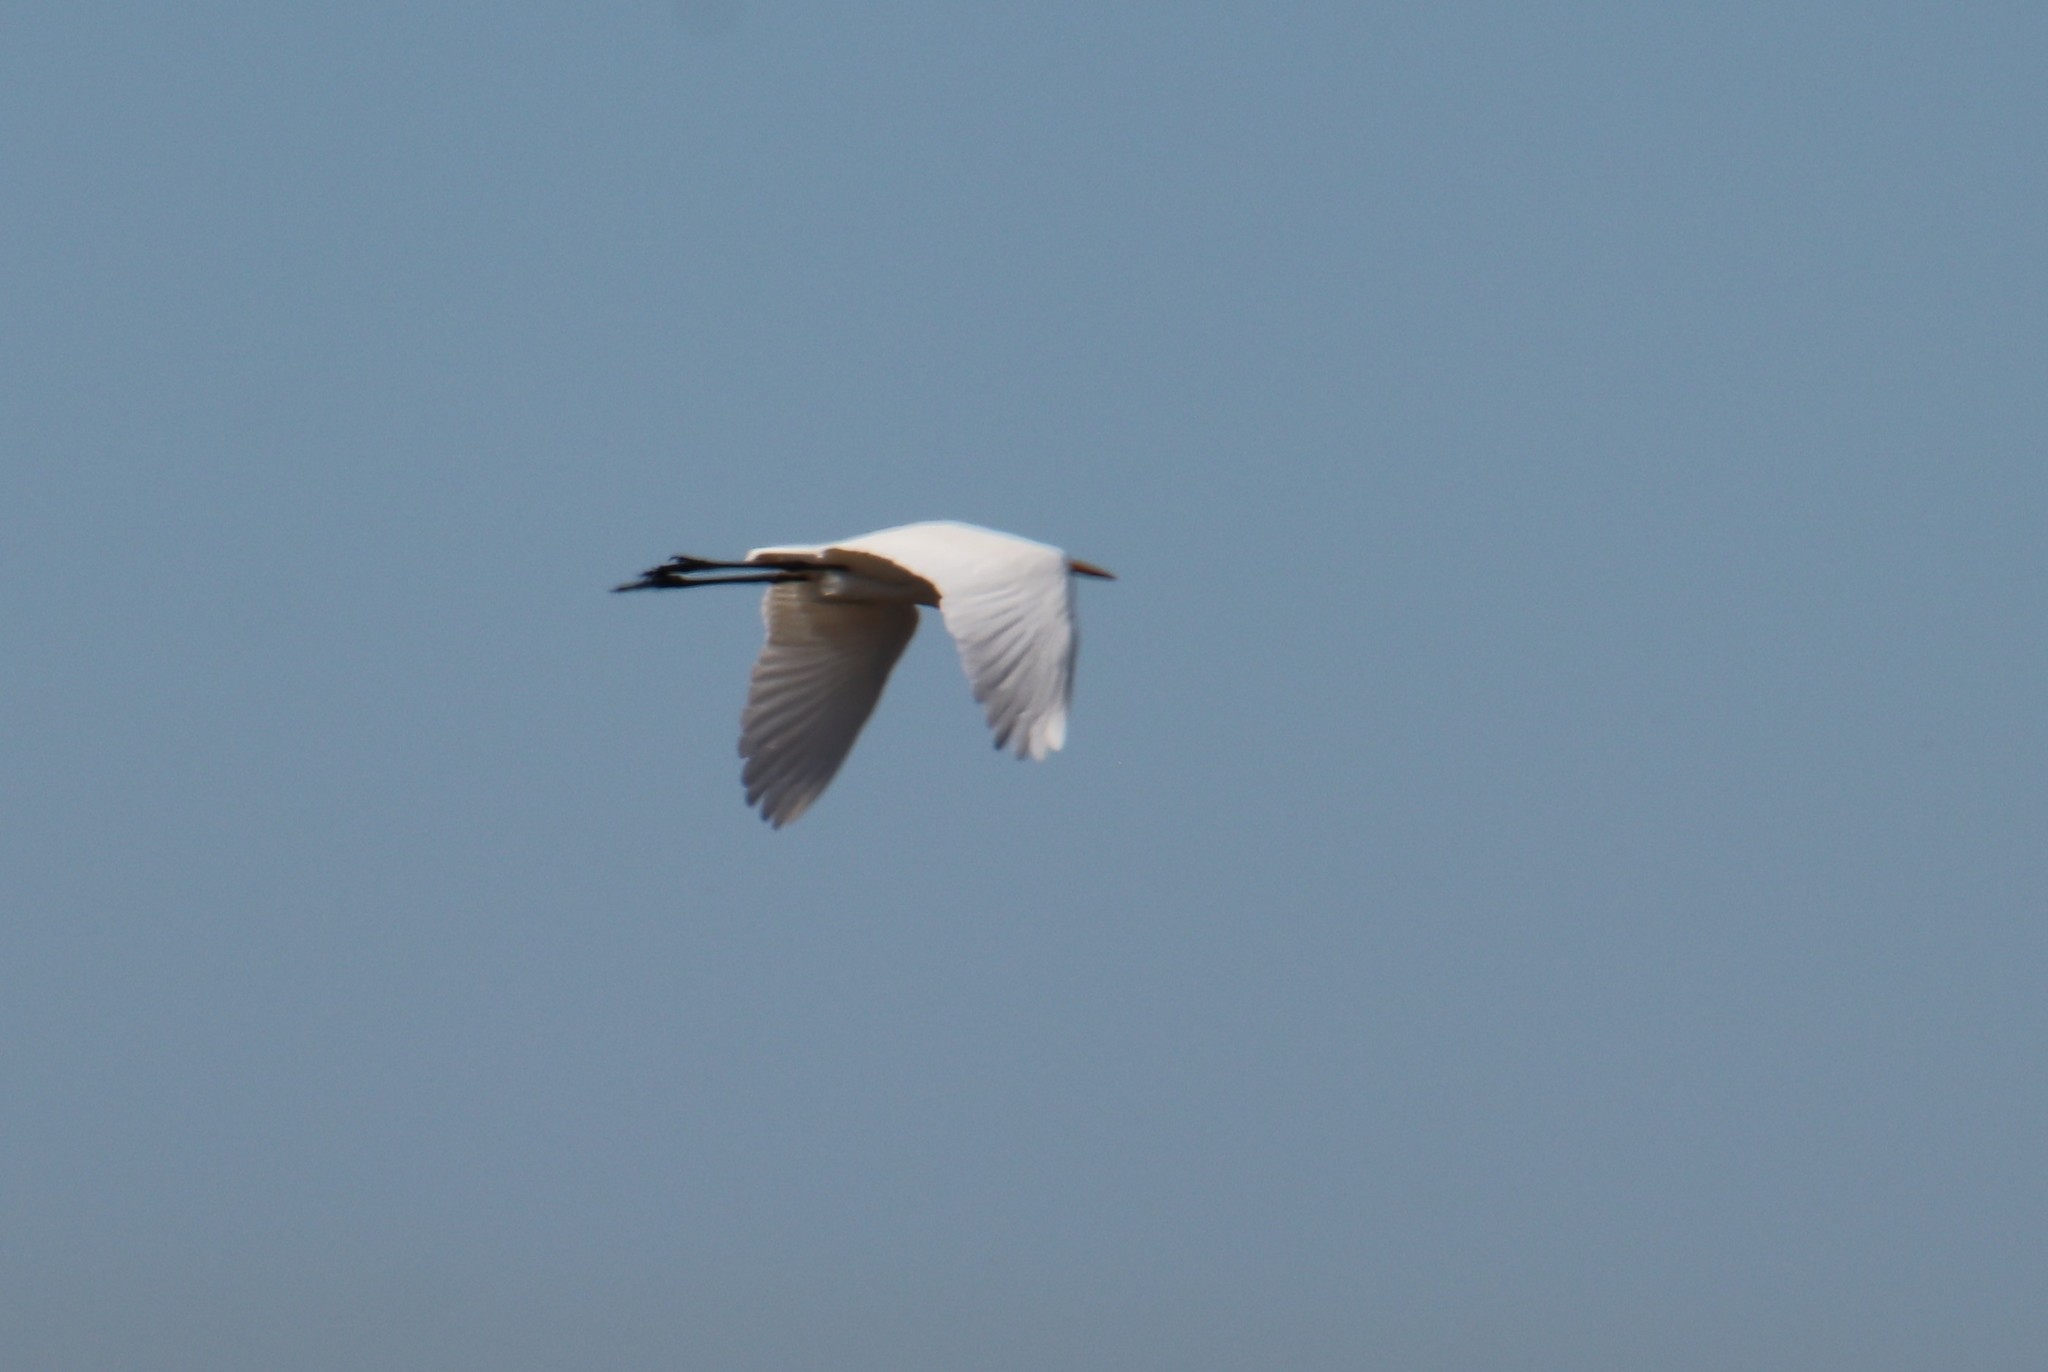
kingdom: Animalia
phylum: Chordata
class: Aves
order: Pelecaniformes
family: Ardeidae
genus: Ardea
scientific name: Ardea alba
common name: Great egret
